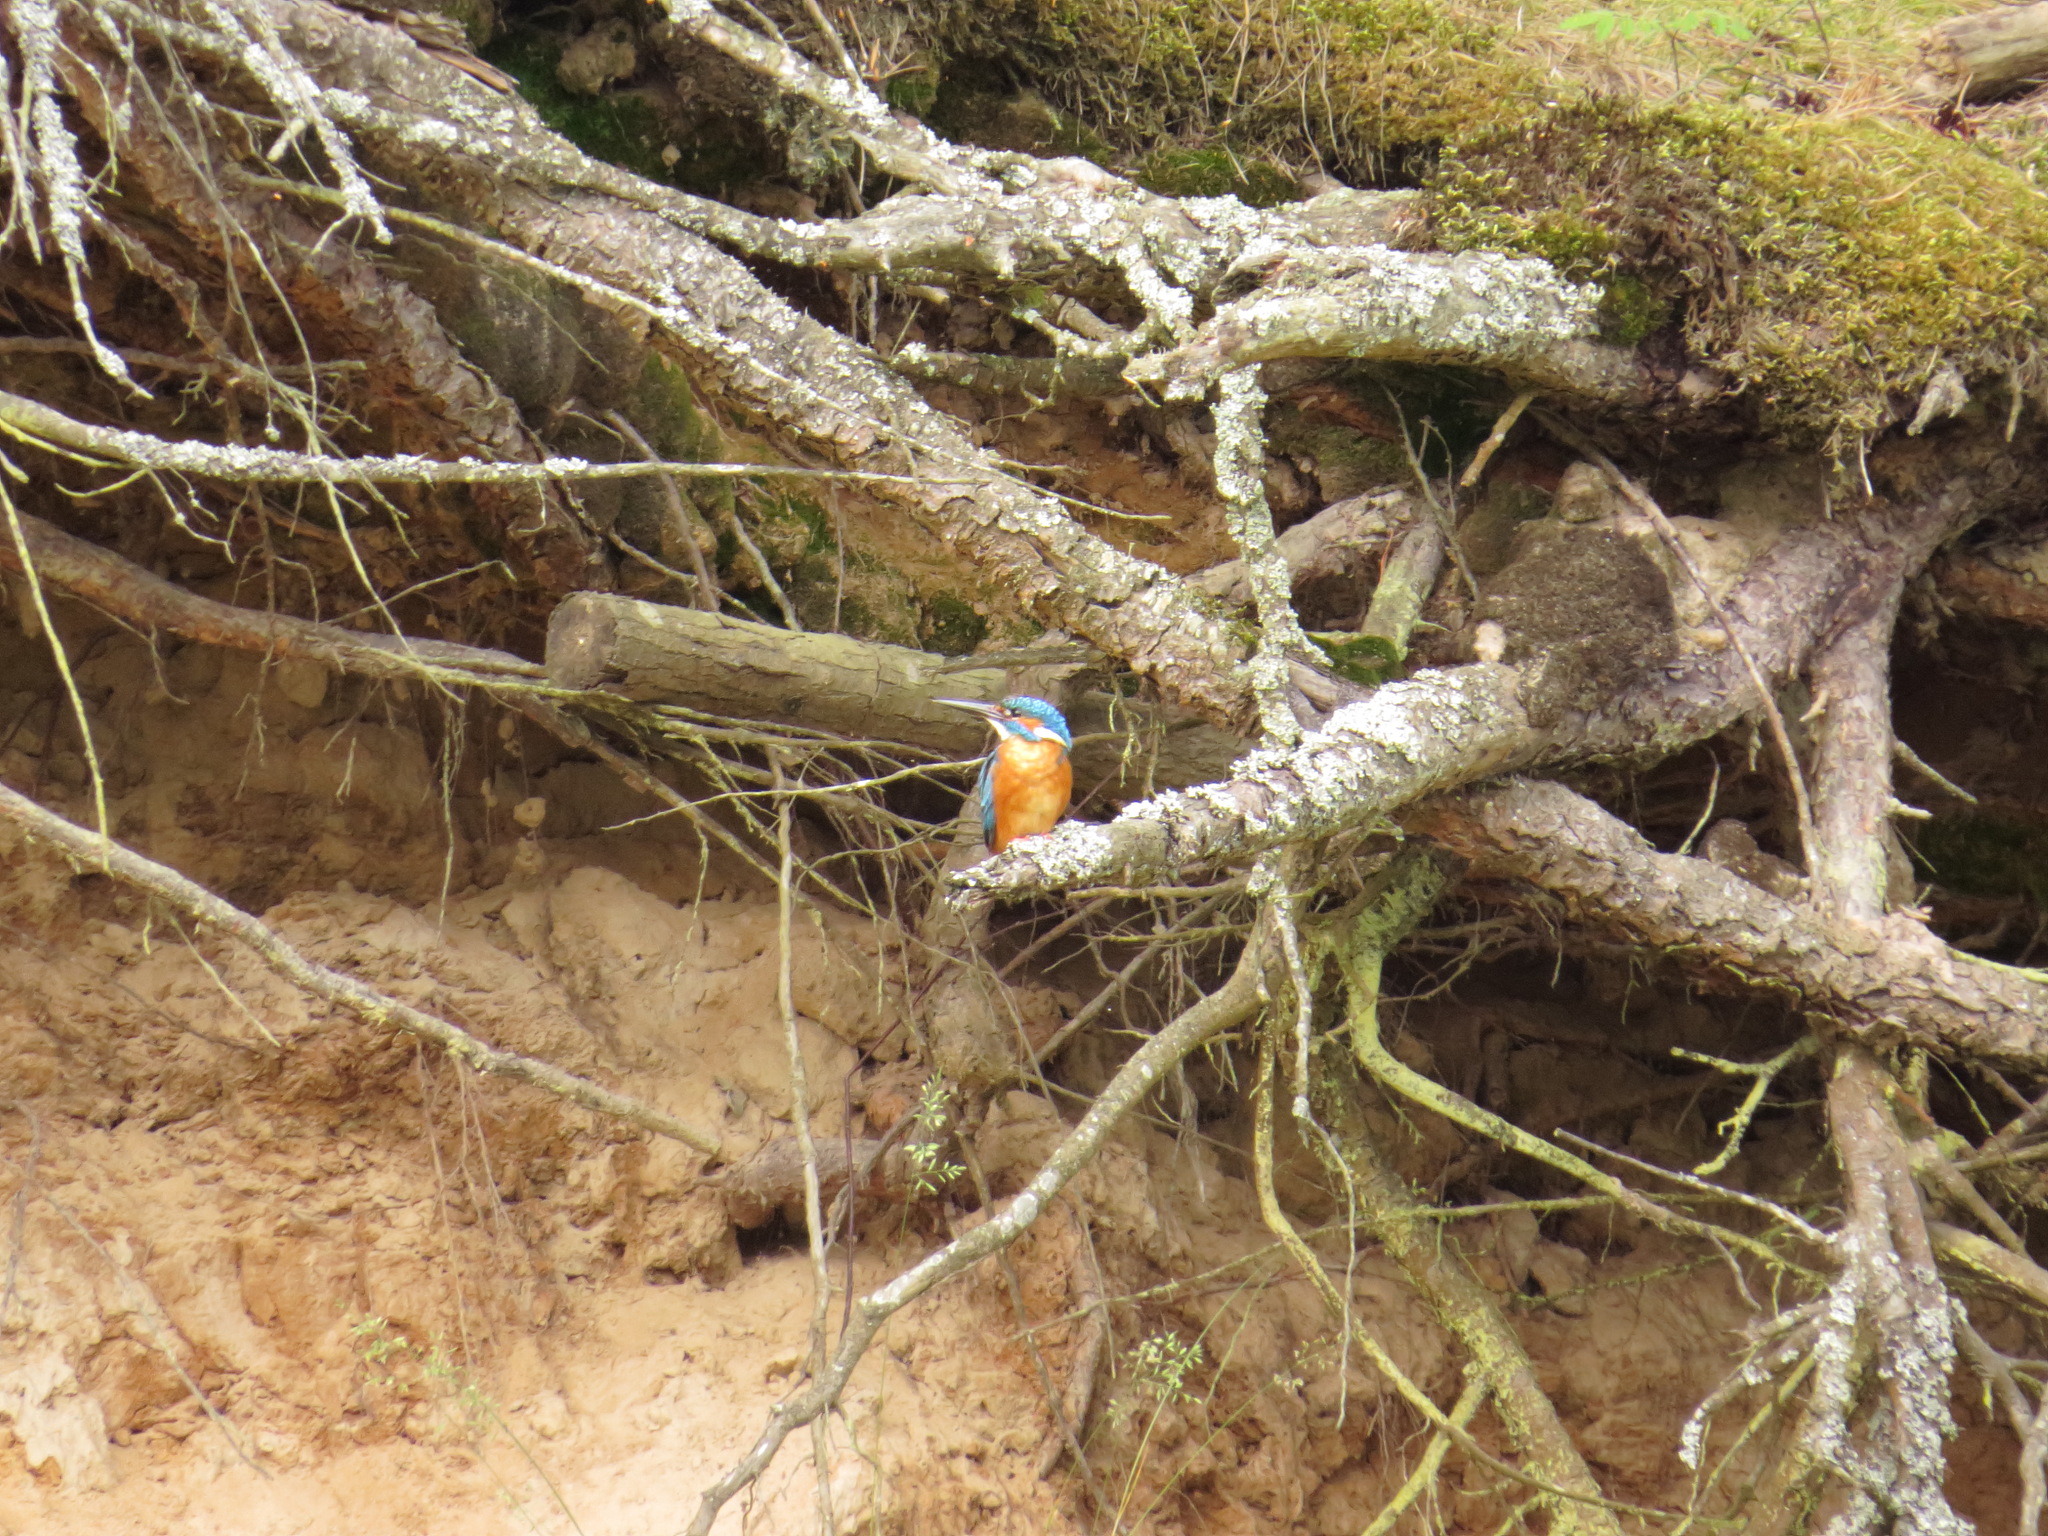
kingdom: Animalia
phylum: Chordata
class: Aves
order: Coraciiformes
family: Alcedinidae
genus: Alcedo
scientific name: Alcedo atthis
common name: Common kingfisher
